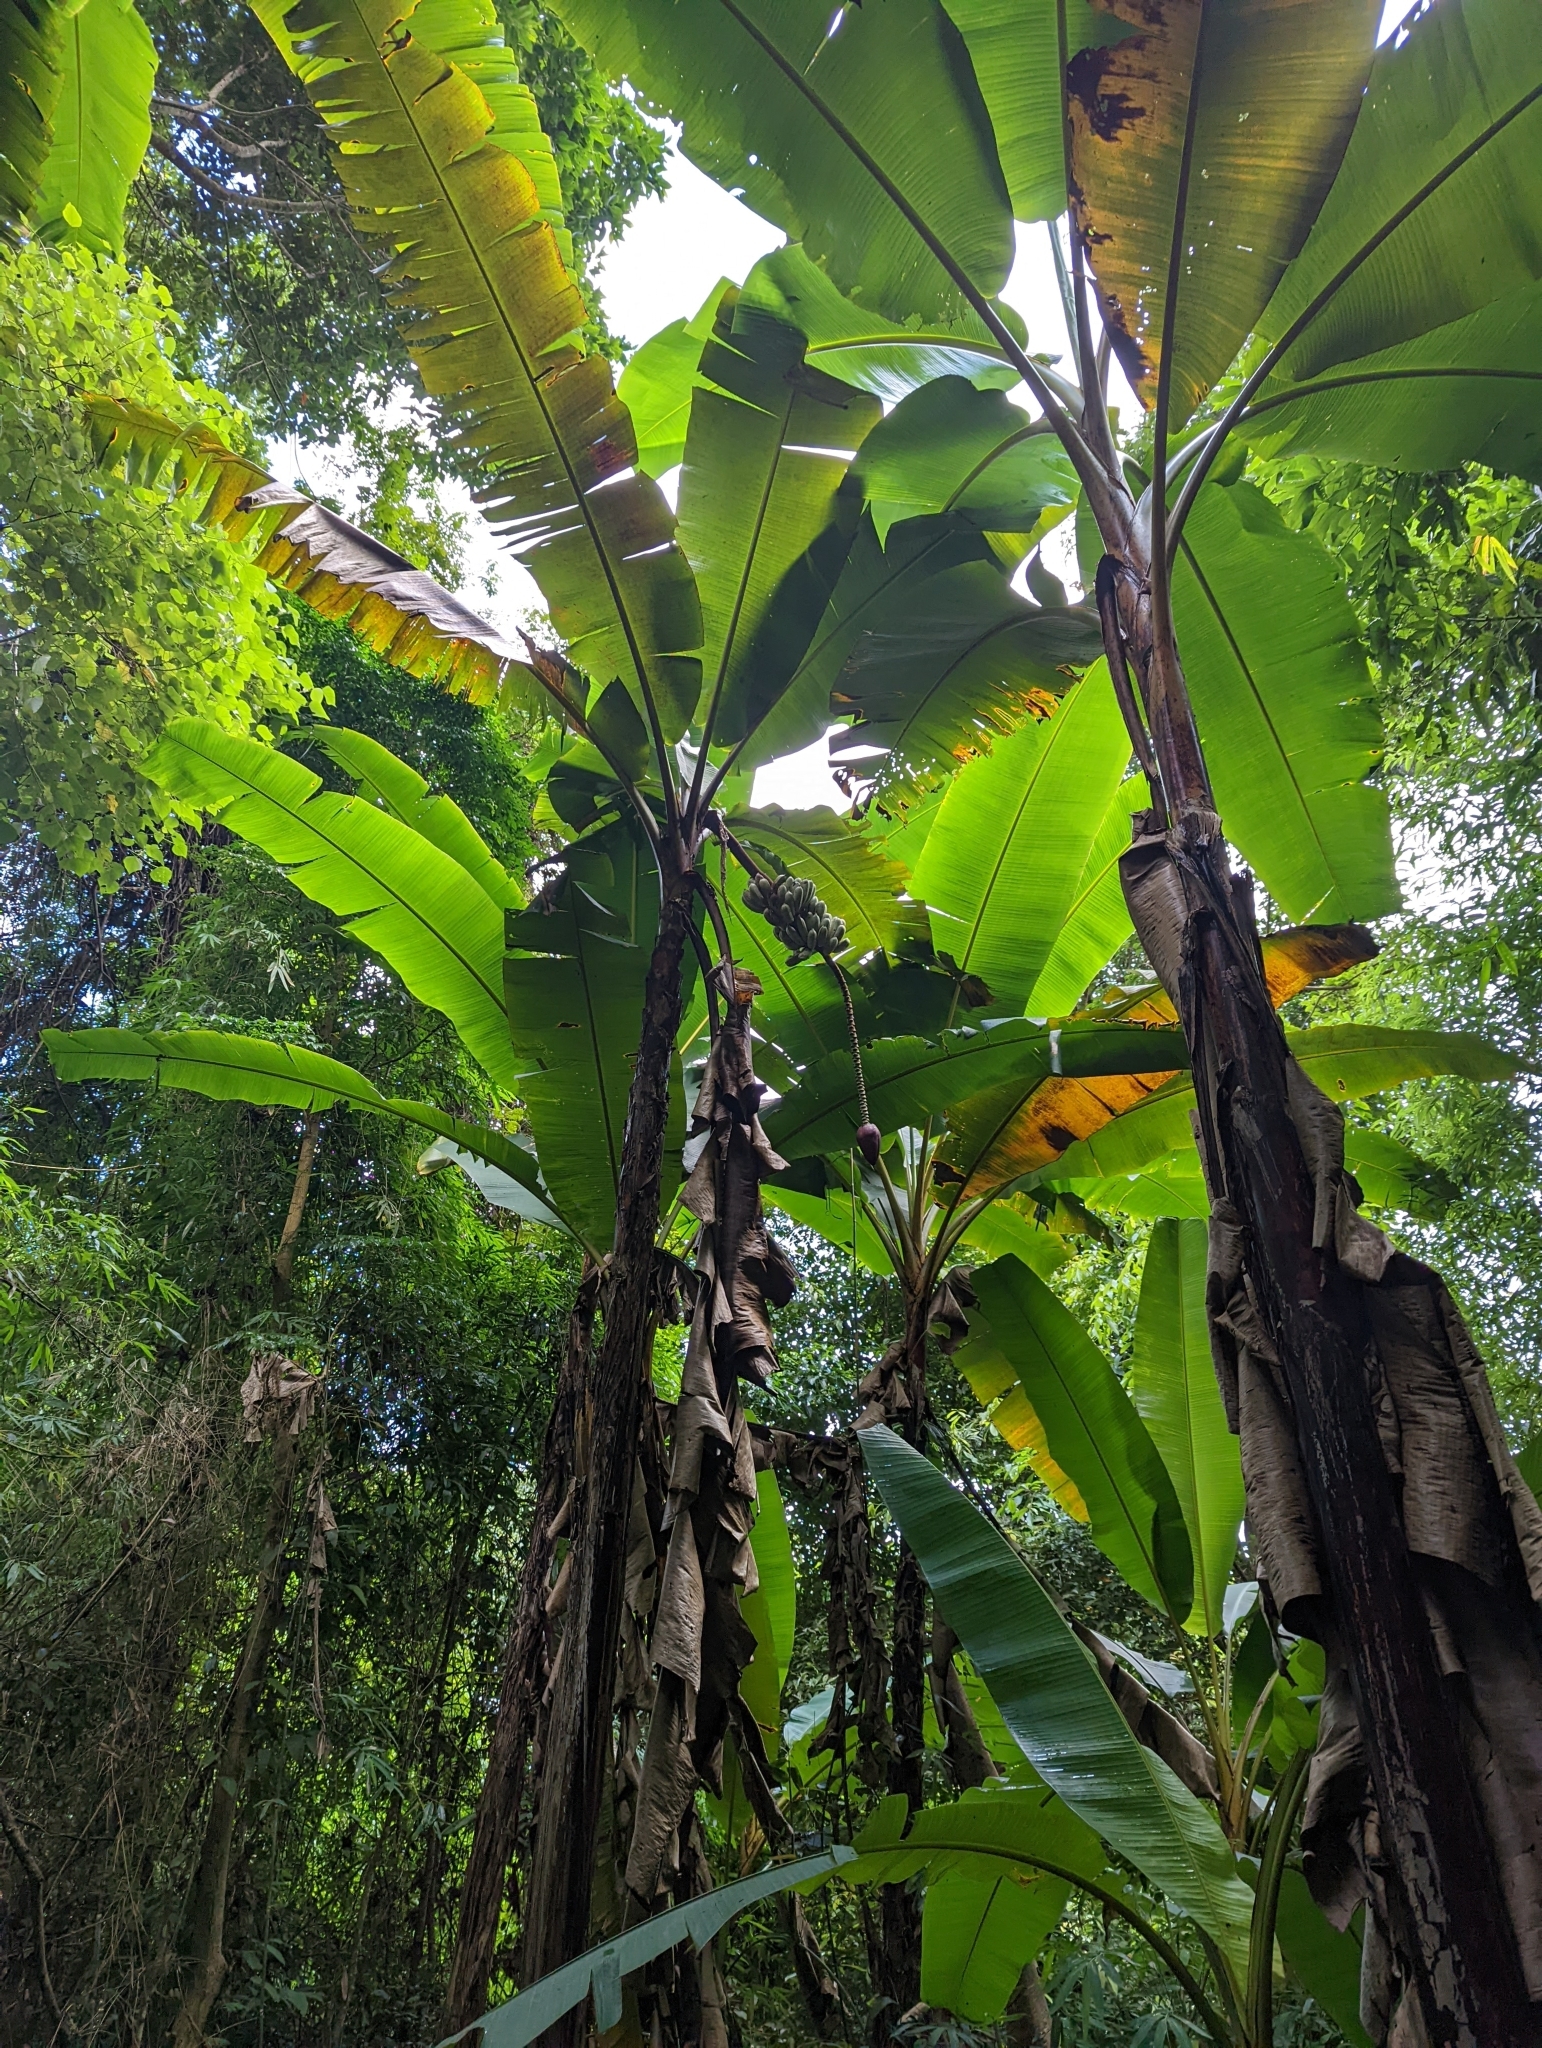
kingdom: Plantae
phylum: Tracheophyta
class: Liliopsida
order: Zingiberales
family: Musaceae
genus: Musa
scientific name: Musa itinerans
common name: Yunnan banana
